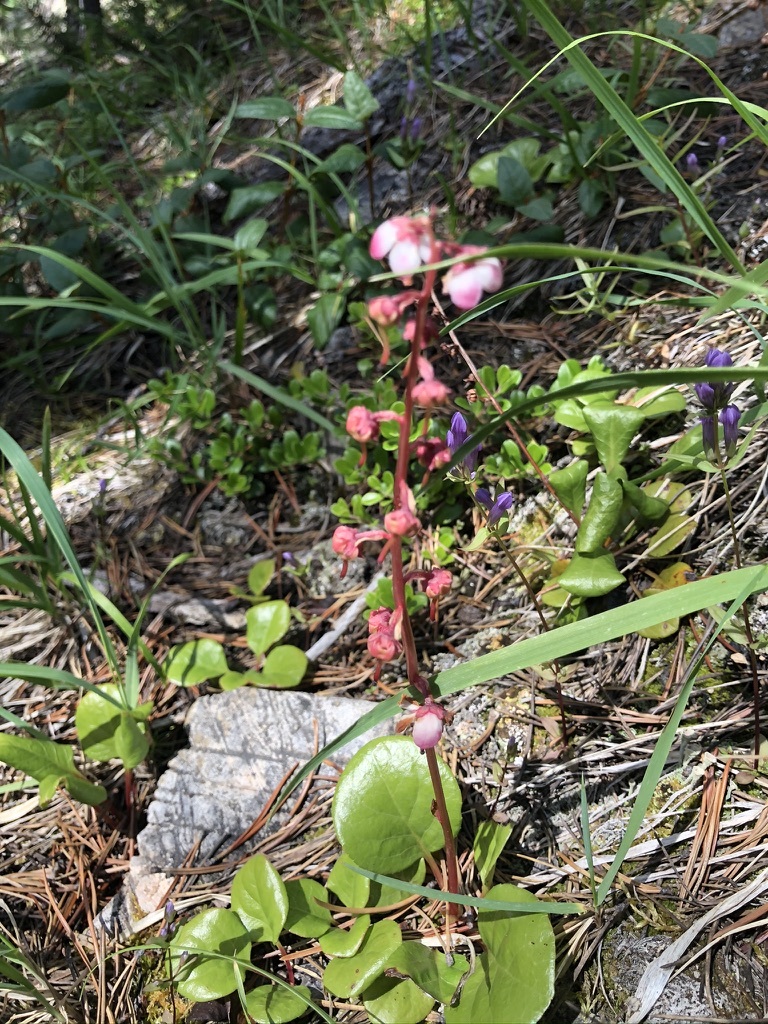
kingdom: Plantae
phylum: Tracheophyta
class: Magnoliopsida
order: Ericales
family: Ericaceae
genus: Pyrola
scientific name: Pyrola asarifolia
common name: Bog wintergreen
